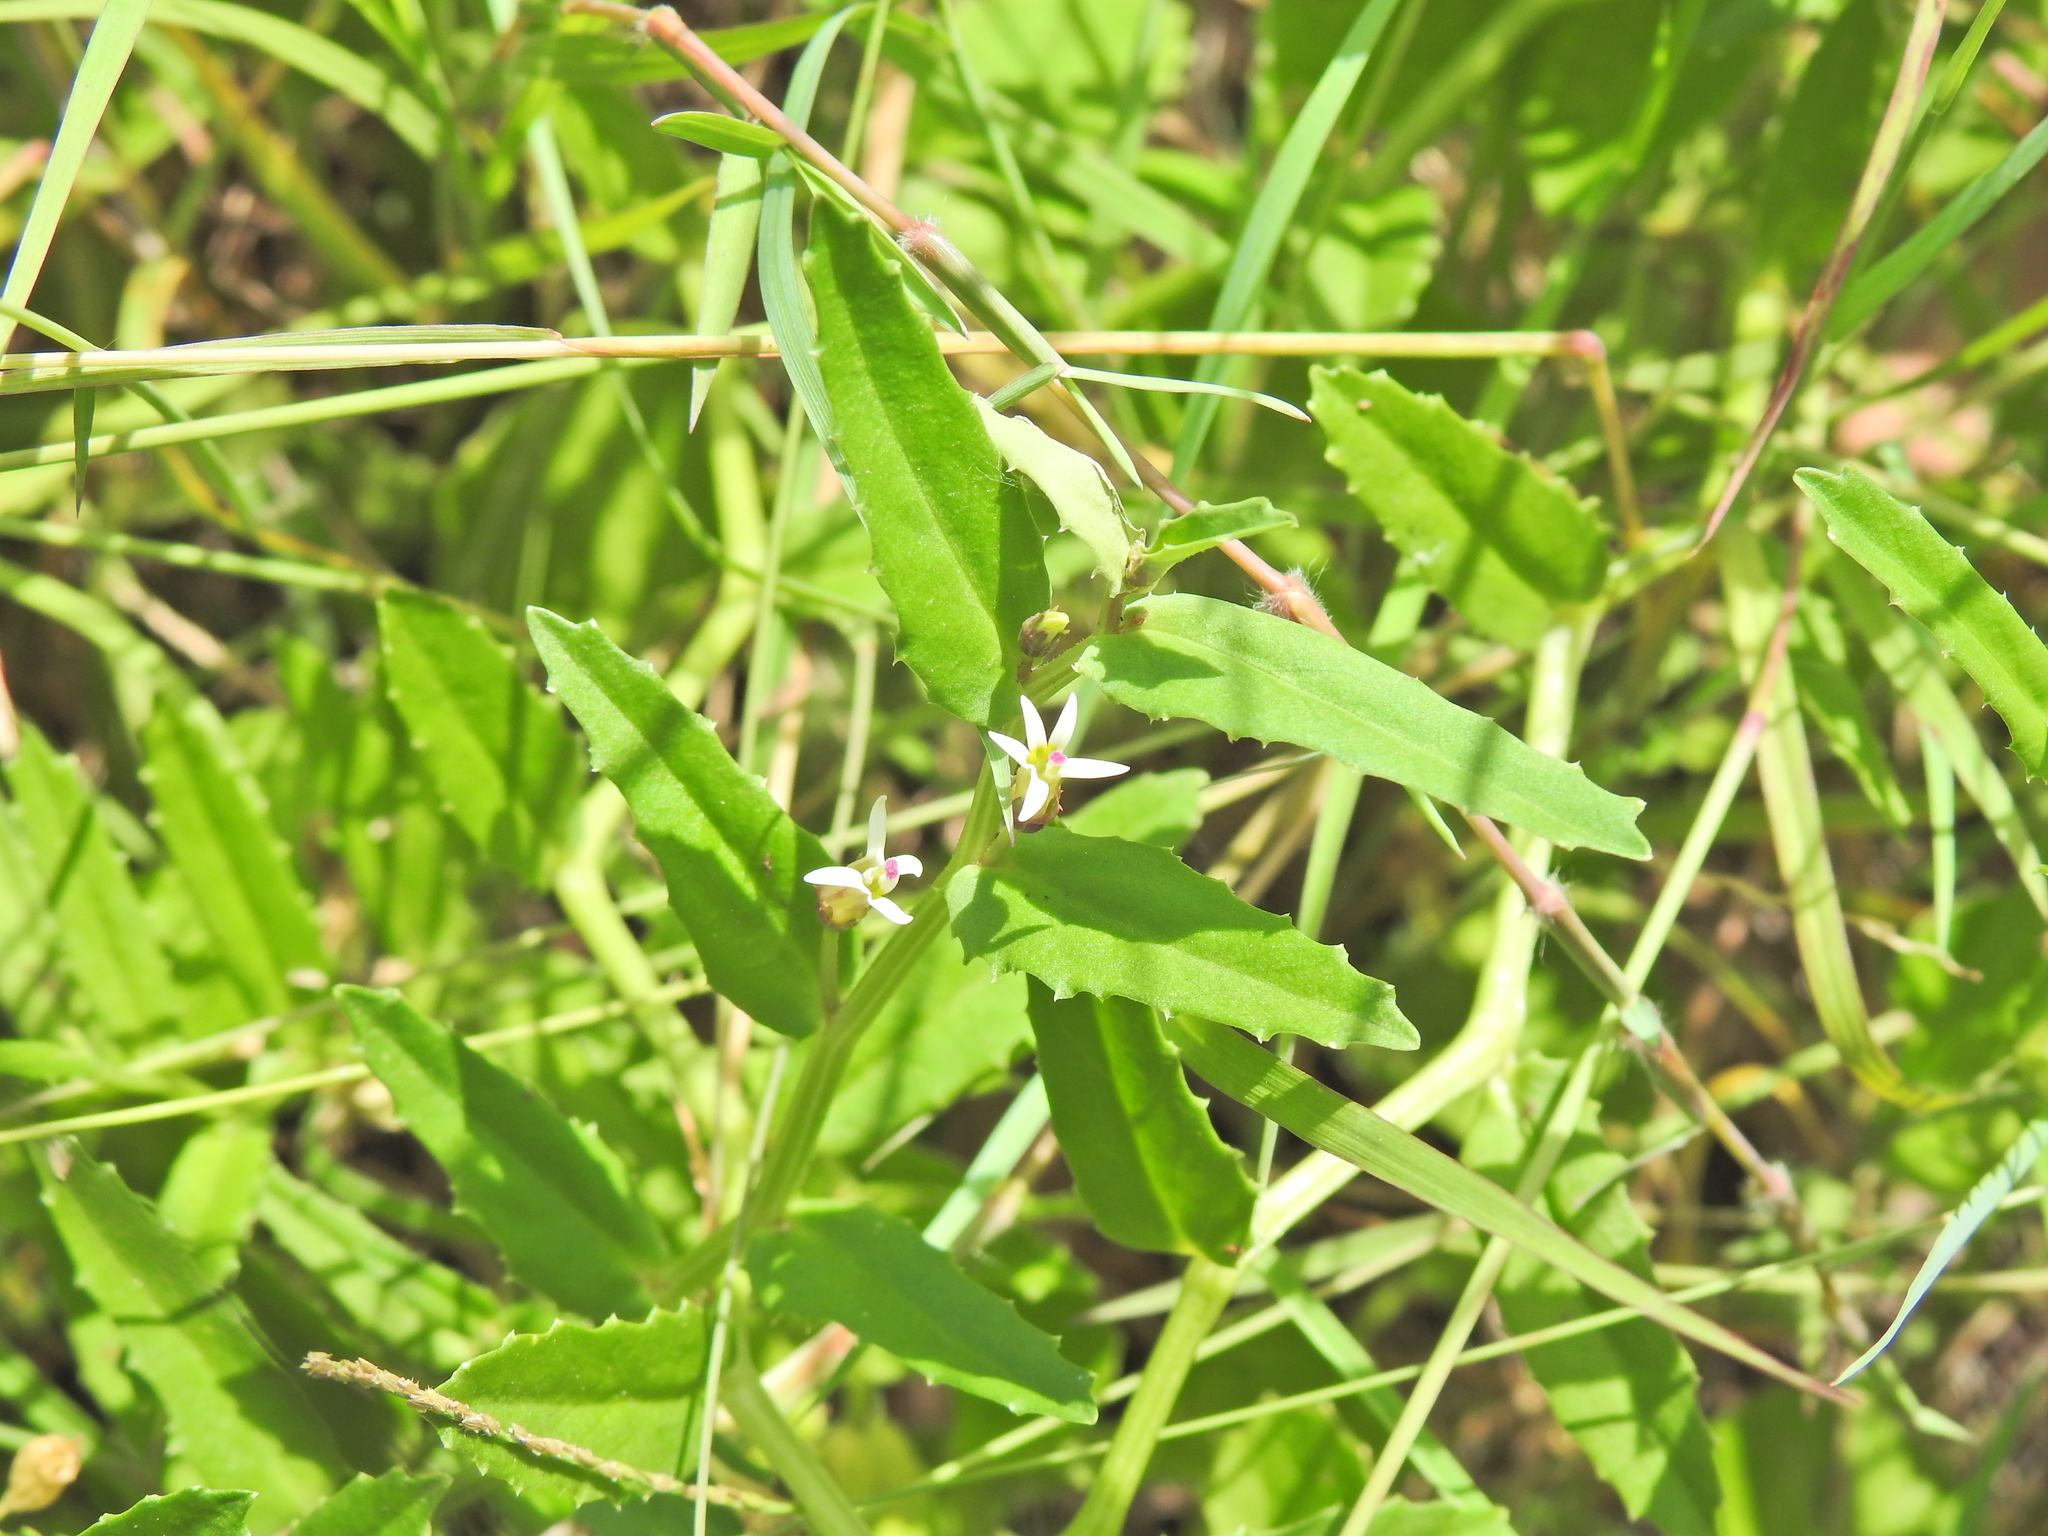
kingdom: Plantae
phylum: Tracheophyta
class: Magnoliopsida
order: Asterales
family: Campanulaceae
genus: Lobelia
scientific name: Lobelia concolor
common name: Poison pratia
